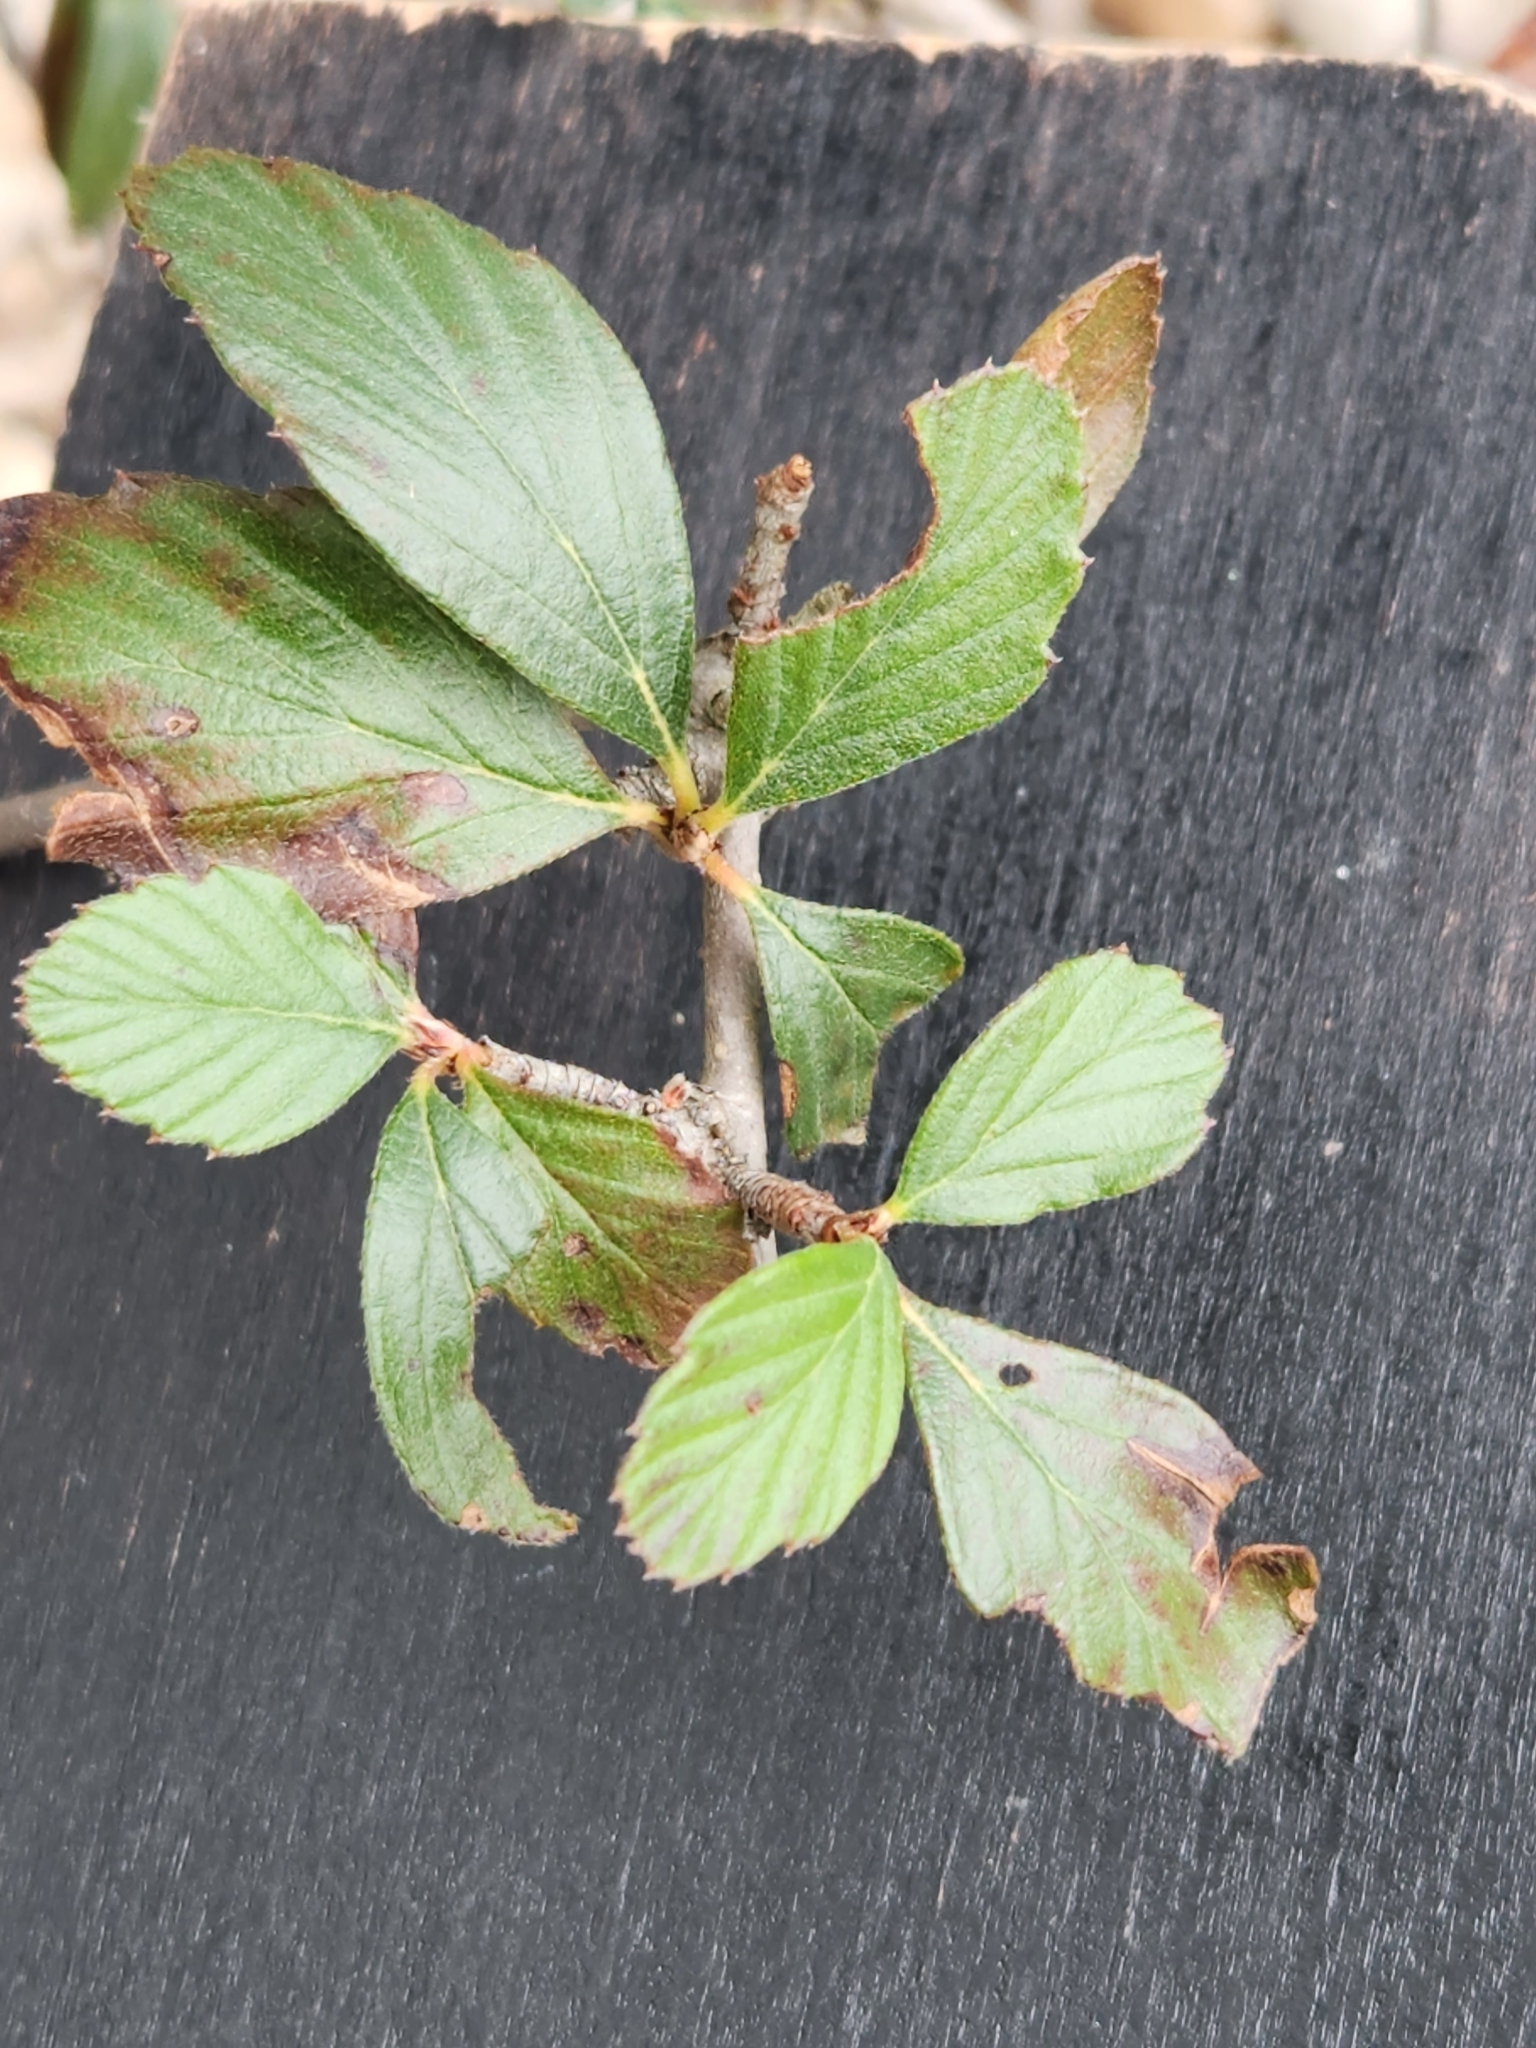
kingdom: Plantae
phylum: Tracheophyta
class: Magnoliopsida
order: Rosales
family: Rosaceae
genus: Cercocarpus
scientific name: Cercocarpus montanus
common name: Alder-leaf cercocarpus
